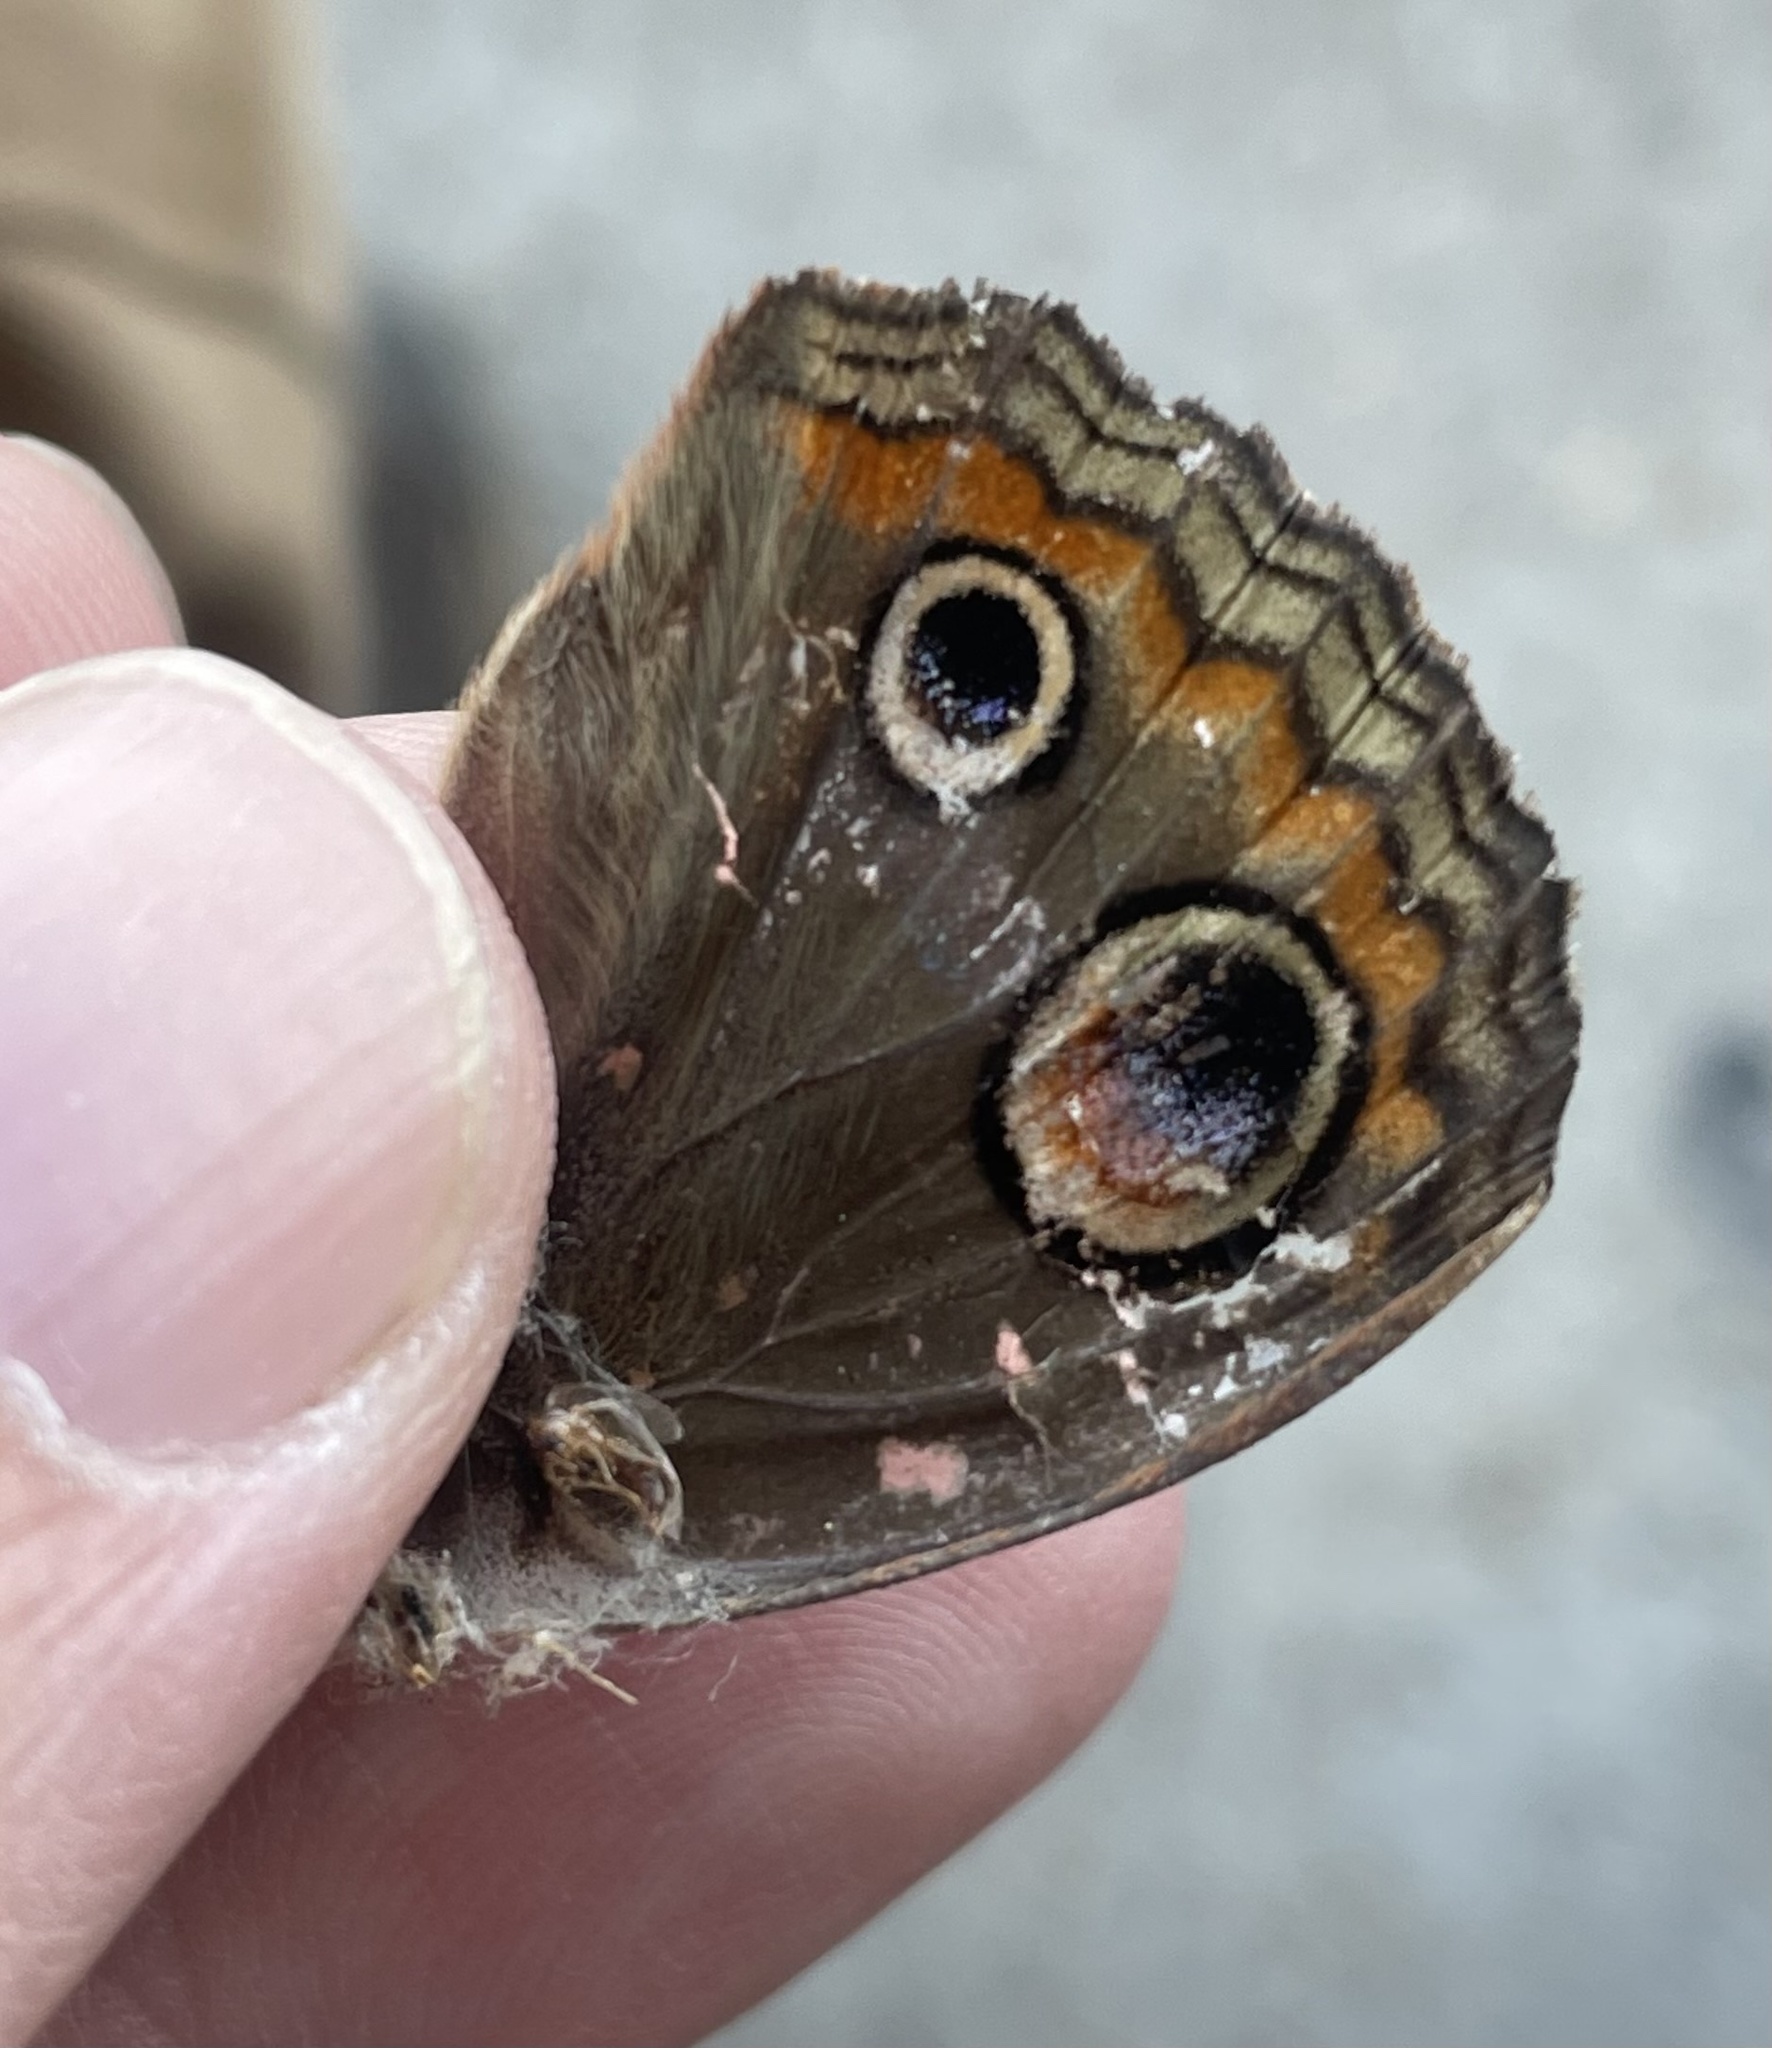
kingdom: Animalia
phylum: Arthropoda
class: Insecta
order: Lepidoptera
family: Nymphalidae
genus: Junonia
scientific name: Junonia coenia
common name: Common buckeye
